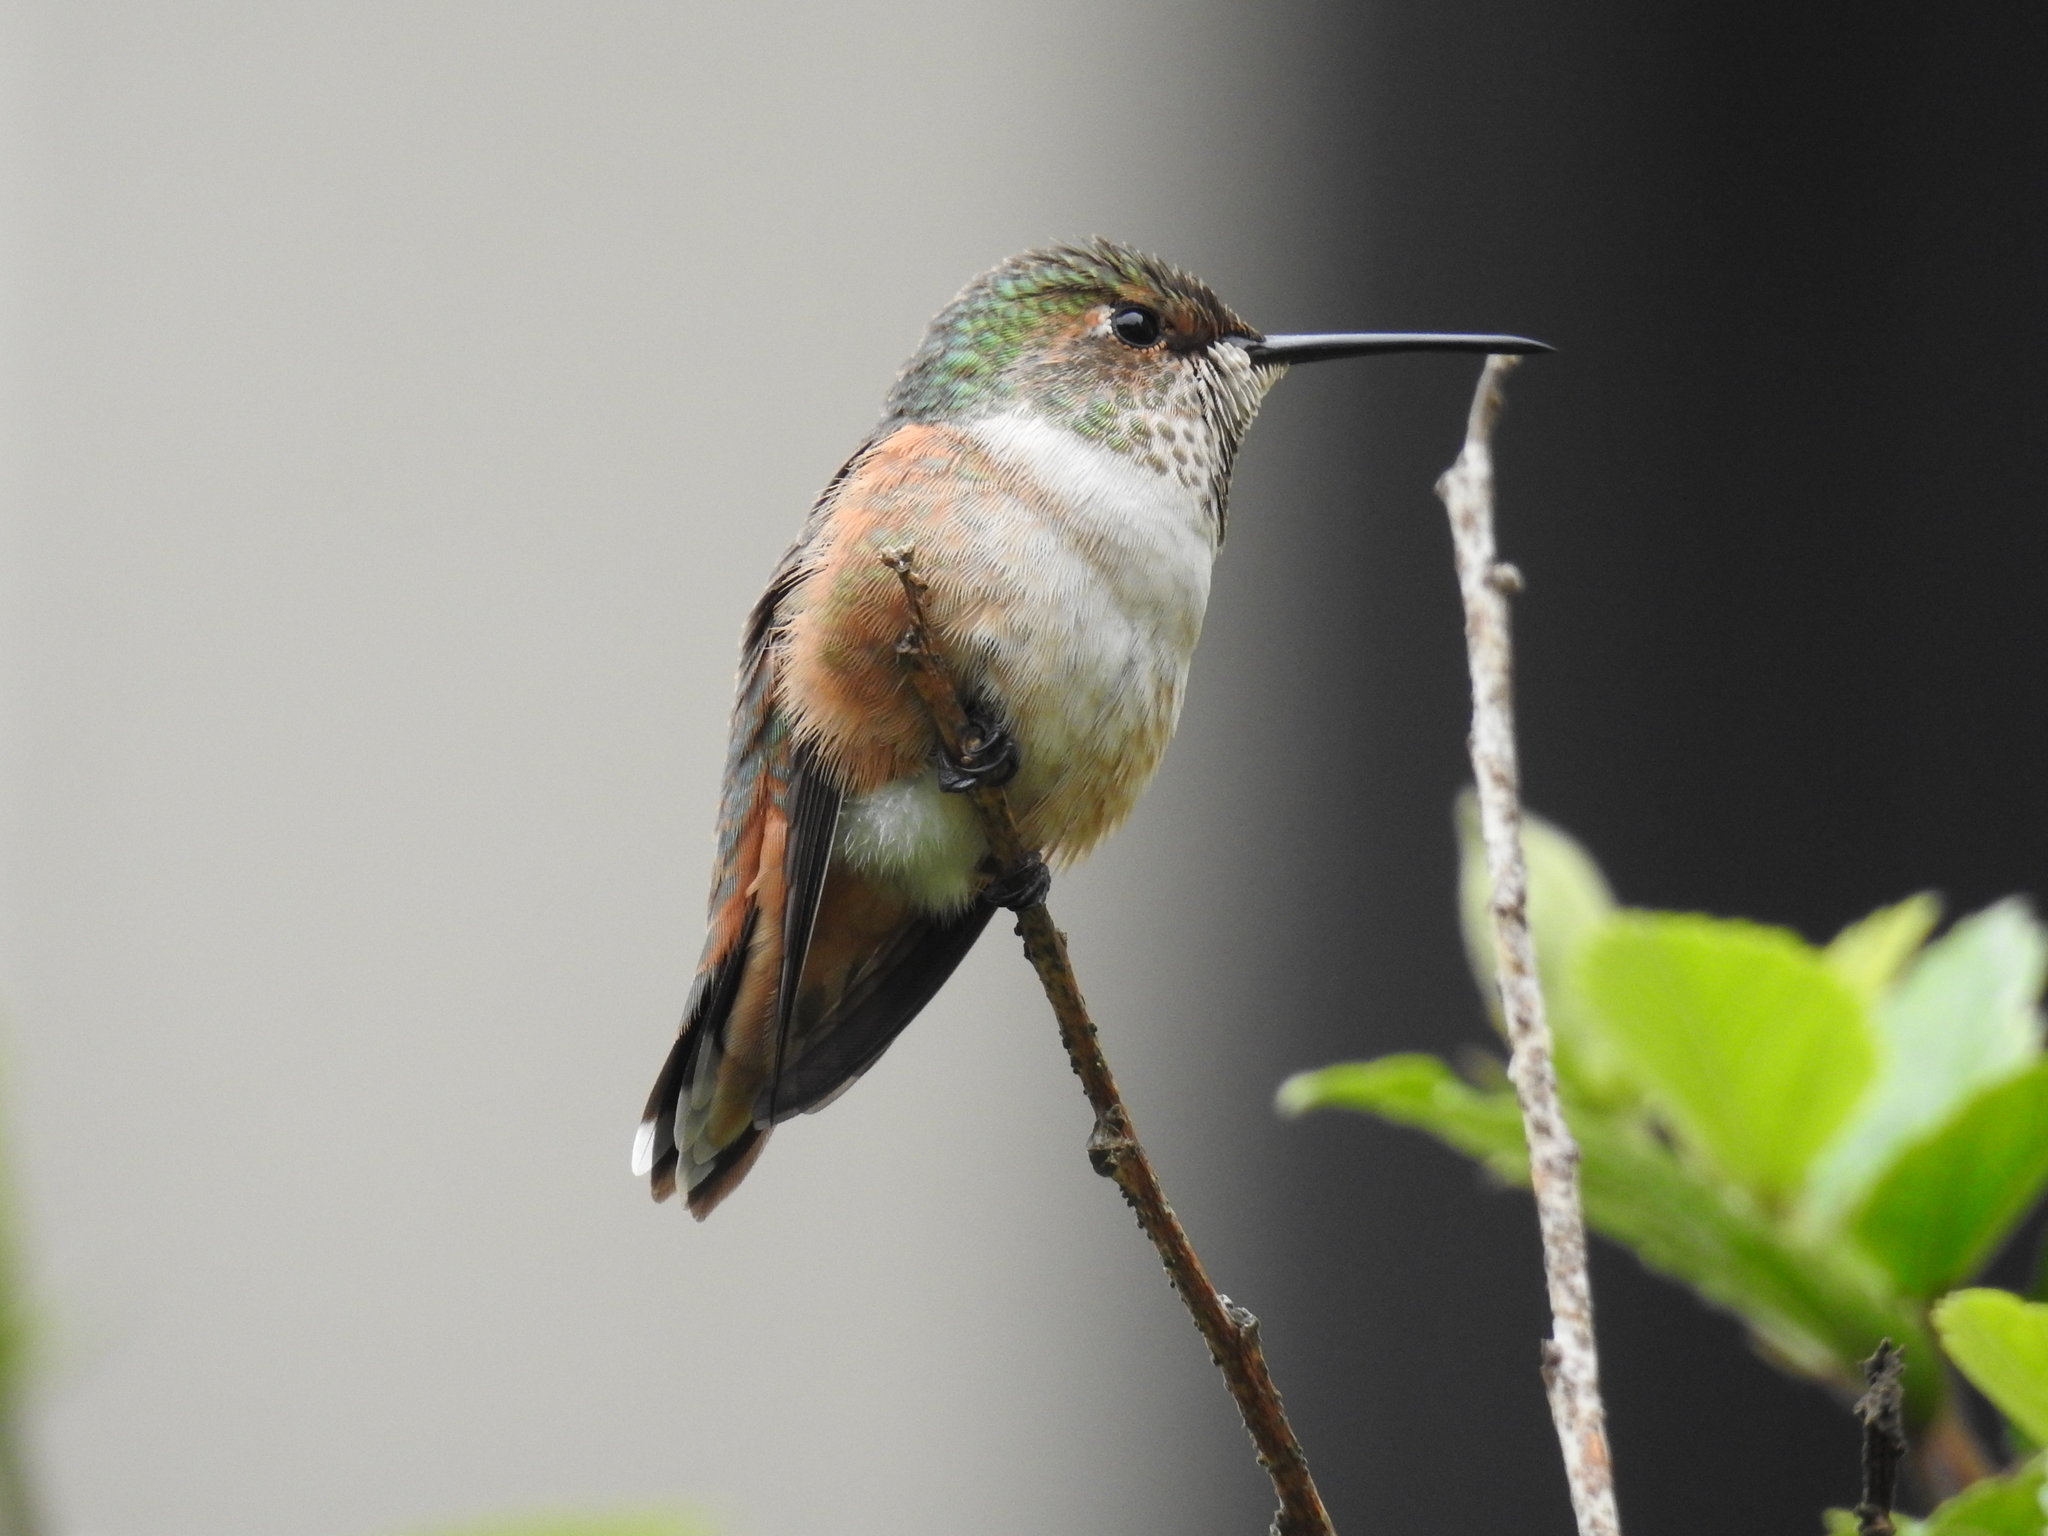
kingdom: Animalia
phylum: Chordata
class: Aves
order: Apodiformes
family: Trochilidae
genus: Selasphorus
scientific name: Selasphorus sasin
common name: Allen's hummingbird
